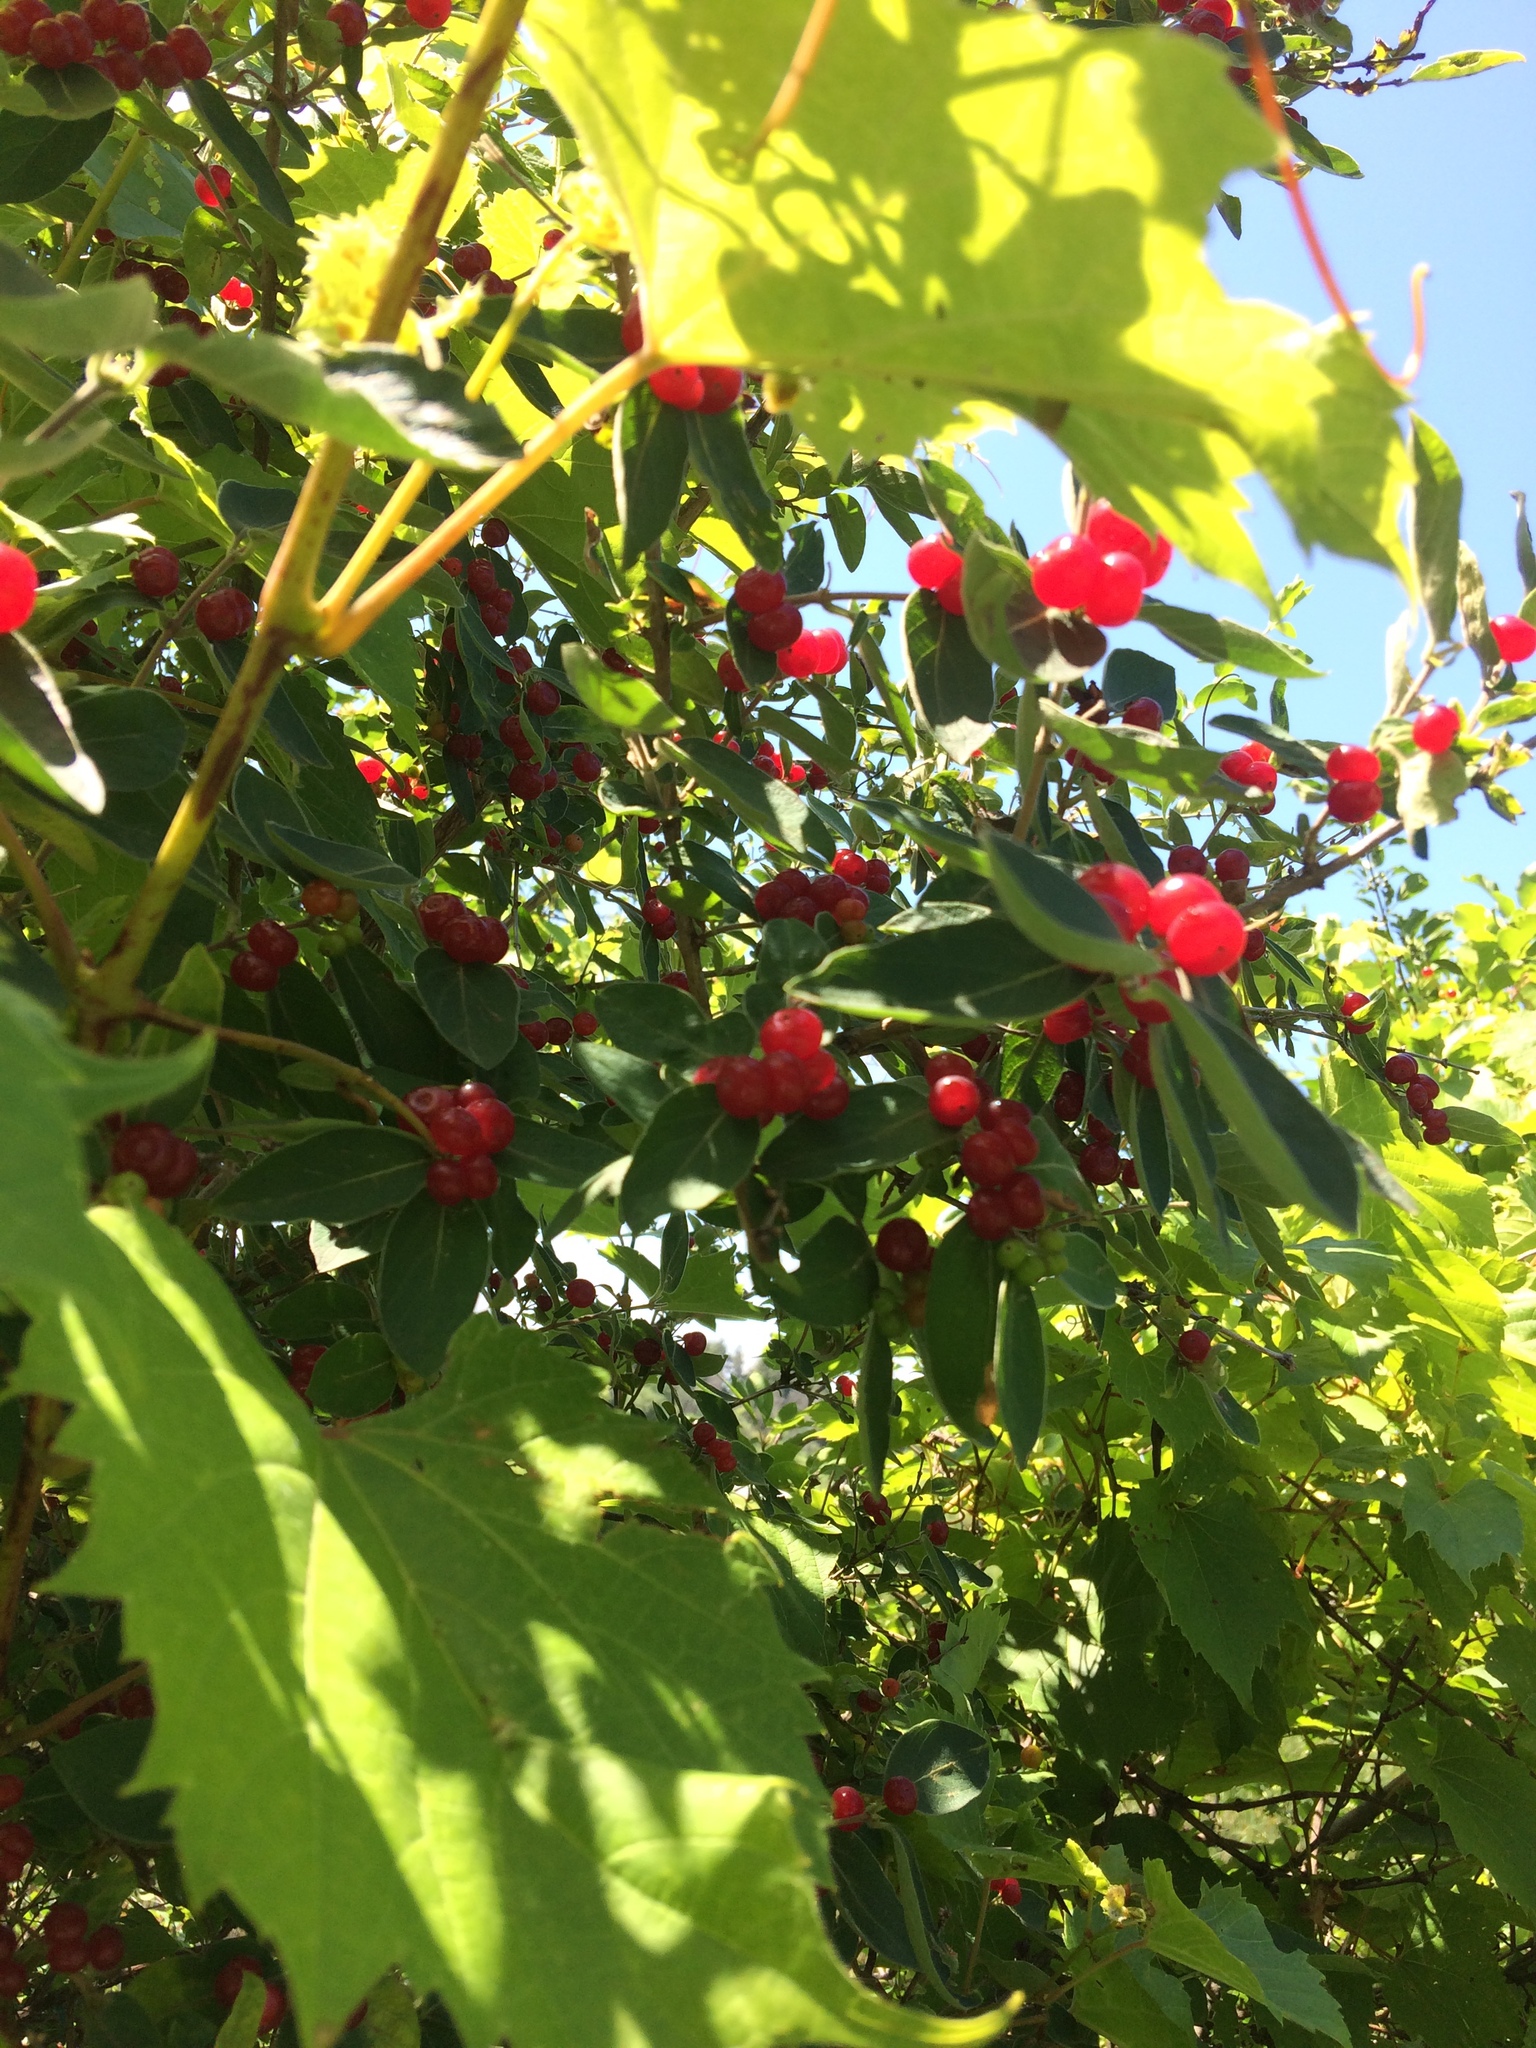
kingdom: Plantae
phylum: Tracheophyta
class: Magnoliopsida
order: Dipsacales
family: Caprifoliaceae
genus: Lonicera
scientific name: Lonicera morrowii
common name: Morrow's honeysuckle
